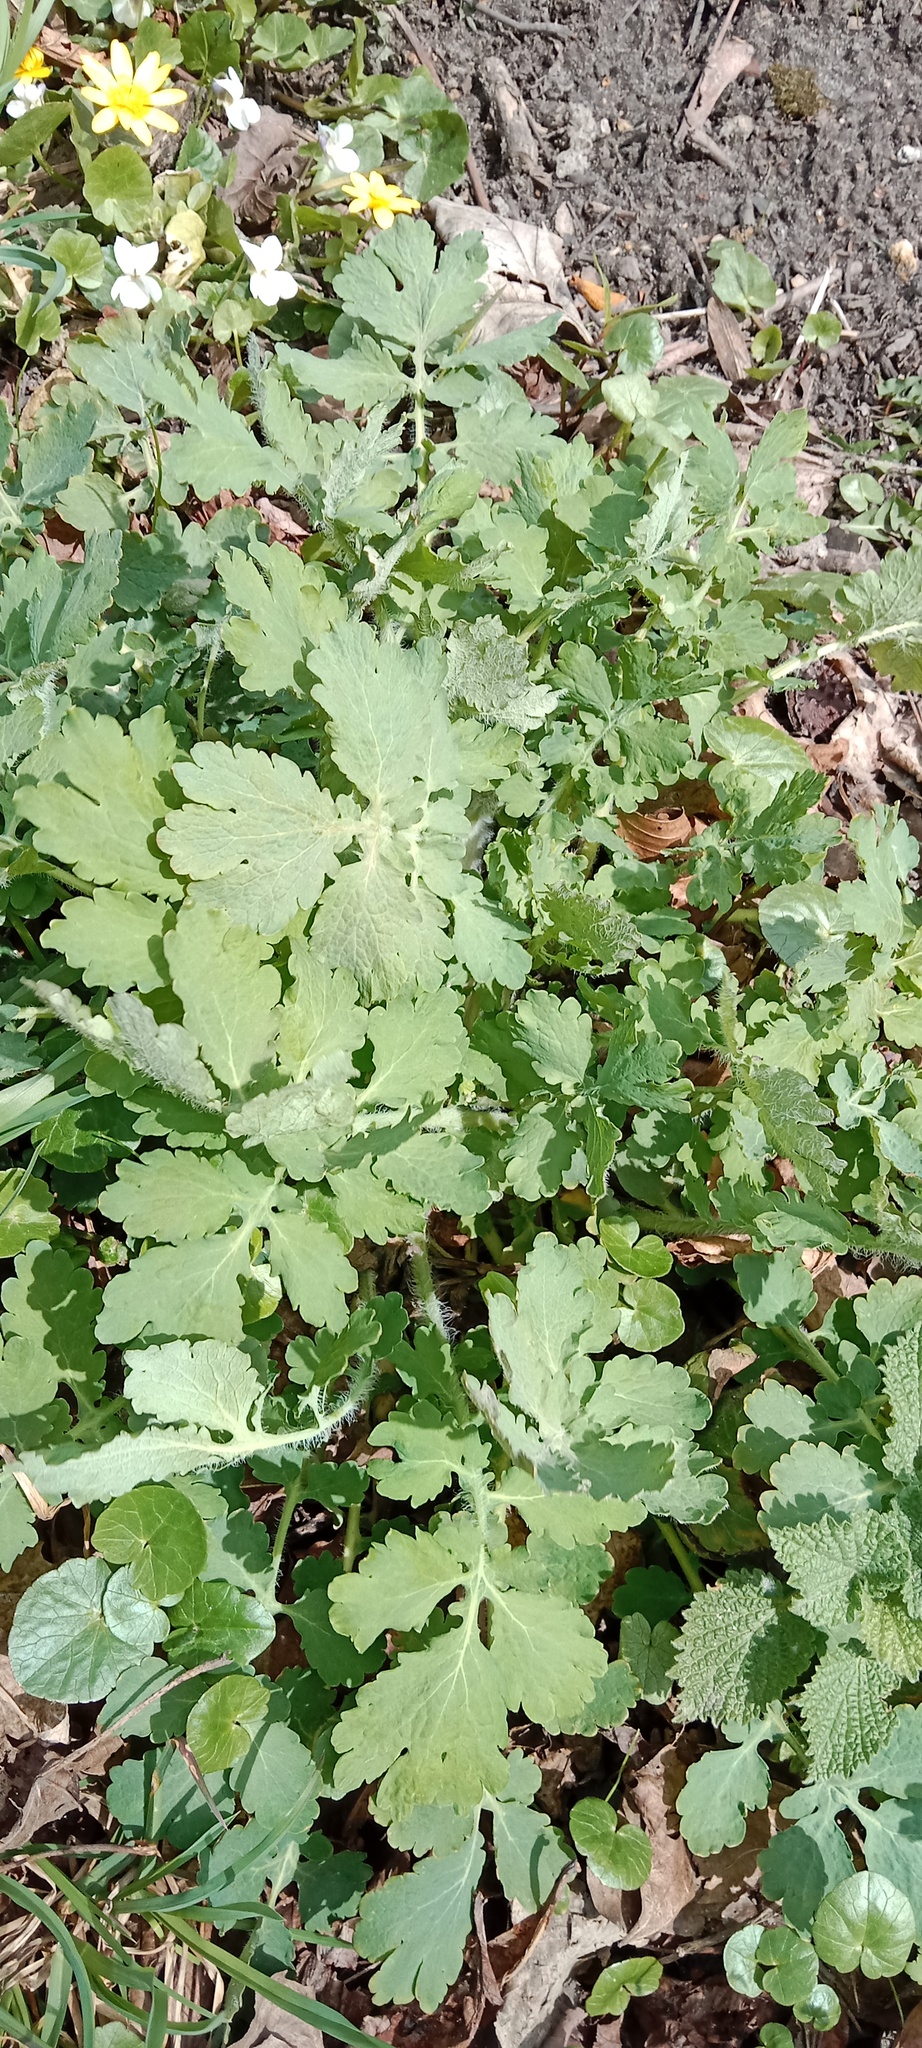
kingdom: Plantae
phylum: Tracheophyta
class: Magnoliopsida
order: Ranunculales
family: Papaveraceae
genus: Chelidonium
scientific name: Chelidonium majus
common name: Greater celandine
